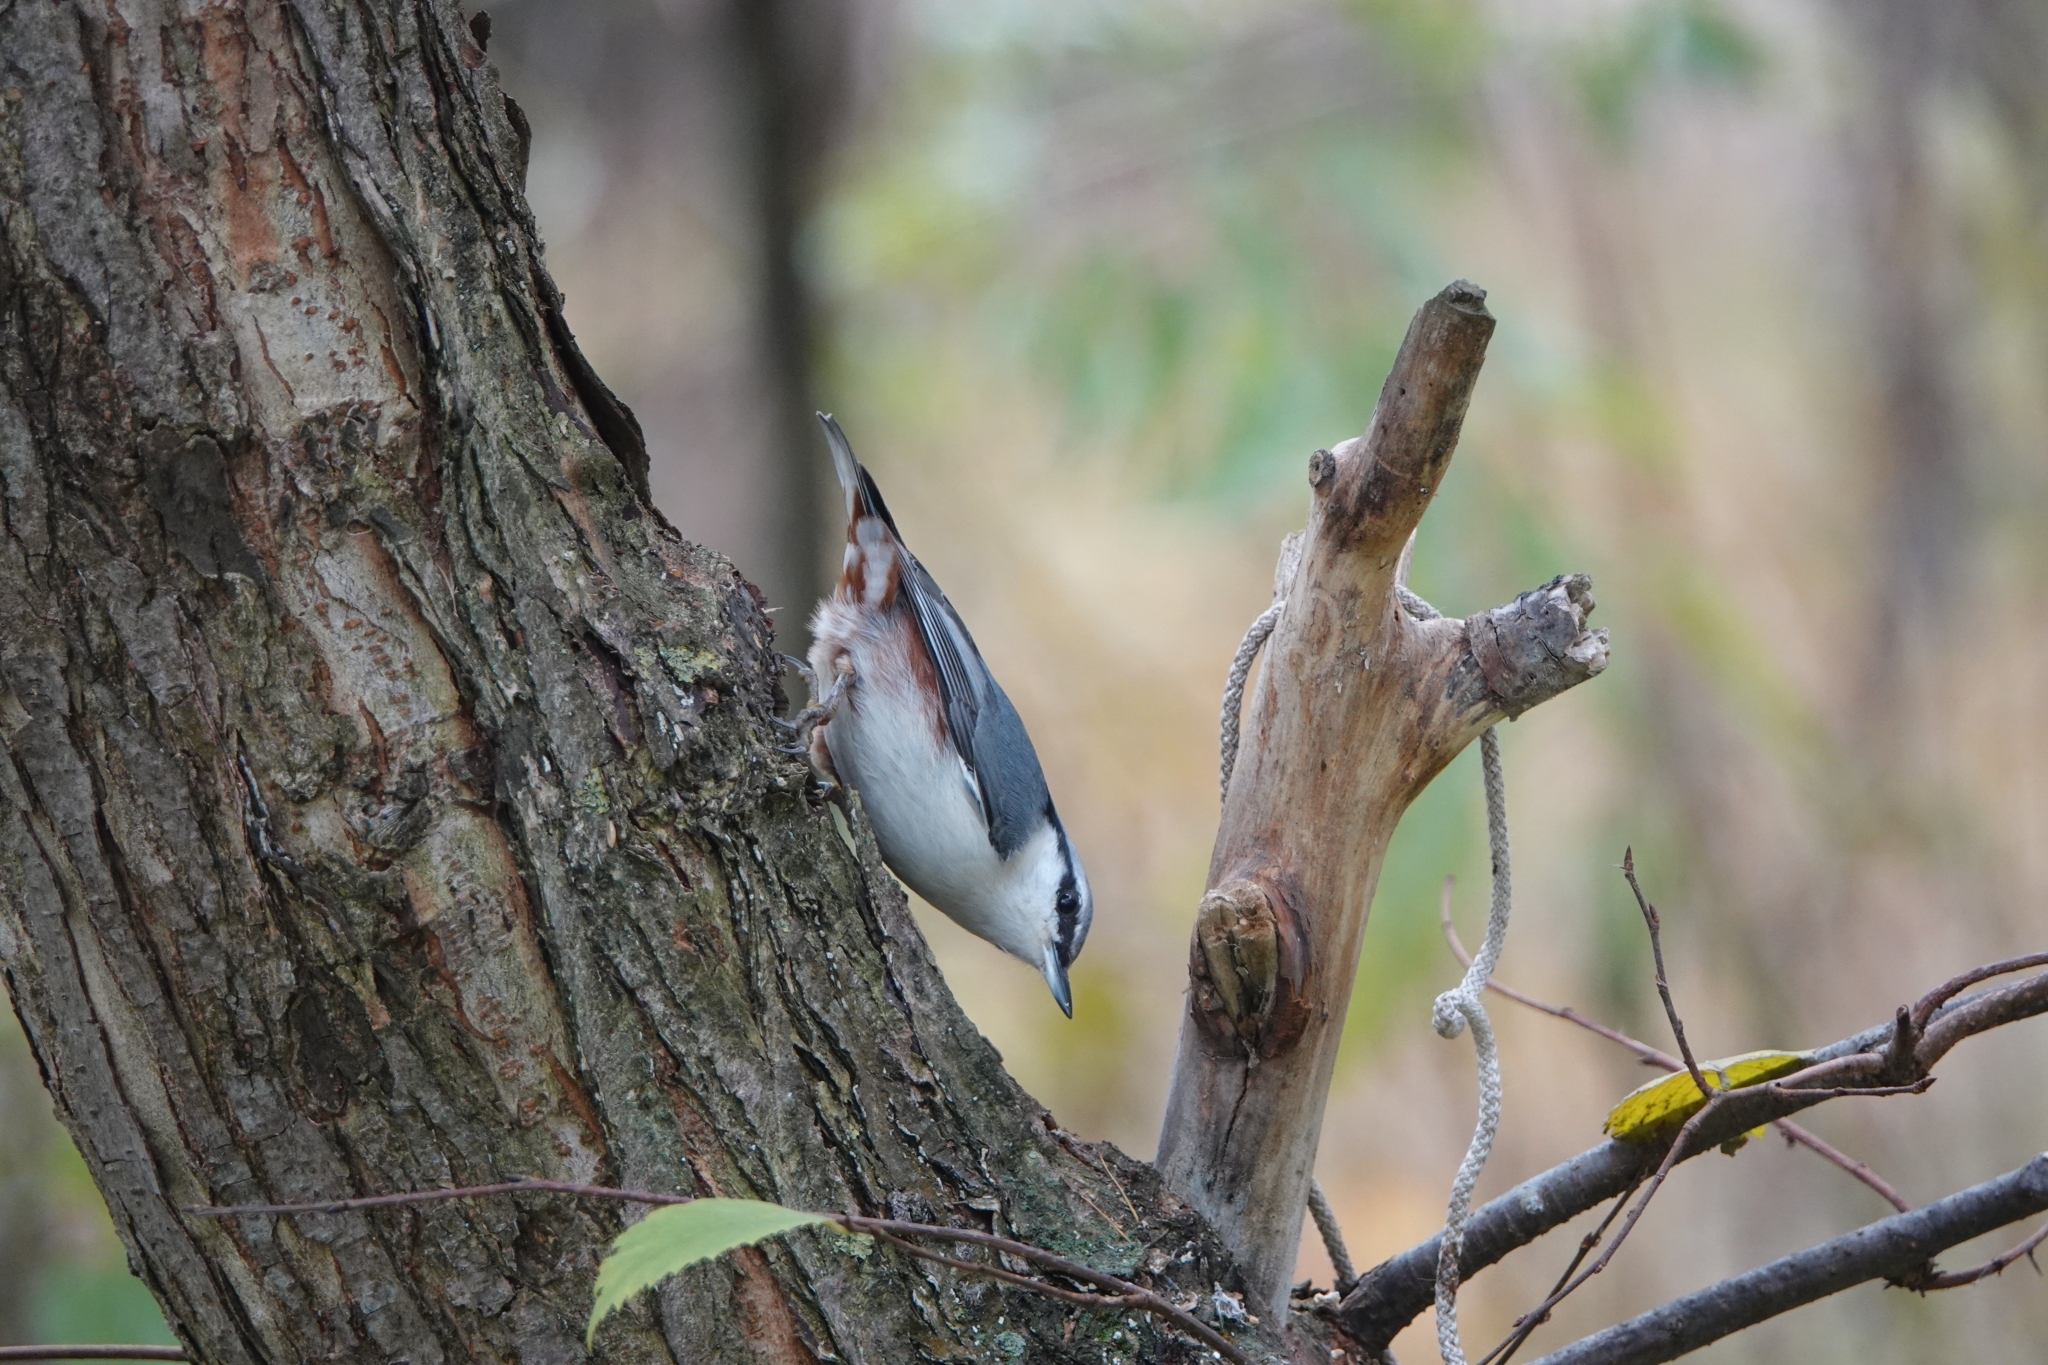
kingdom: Animalia
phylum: Chordata
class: Aves
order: Passeriformes
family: Sittidae
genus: Sitta
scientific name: Sitta europaea
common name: Eurasian nuthatch
